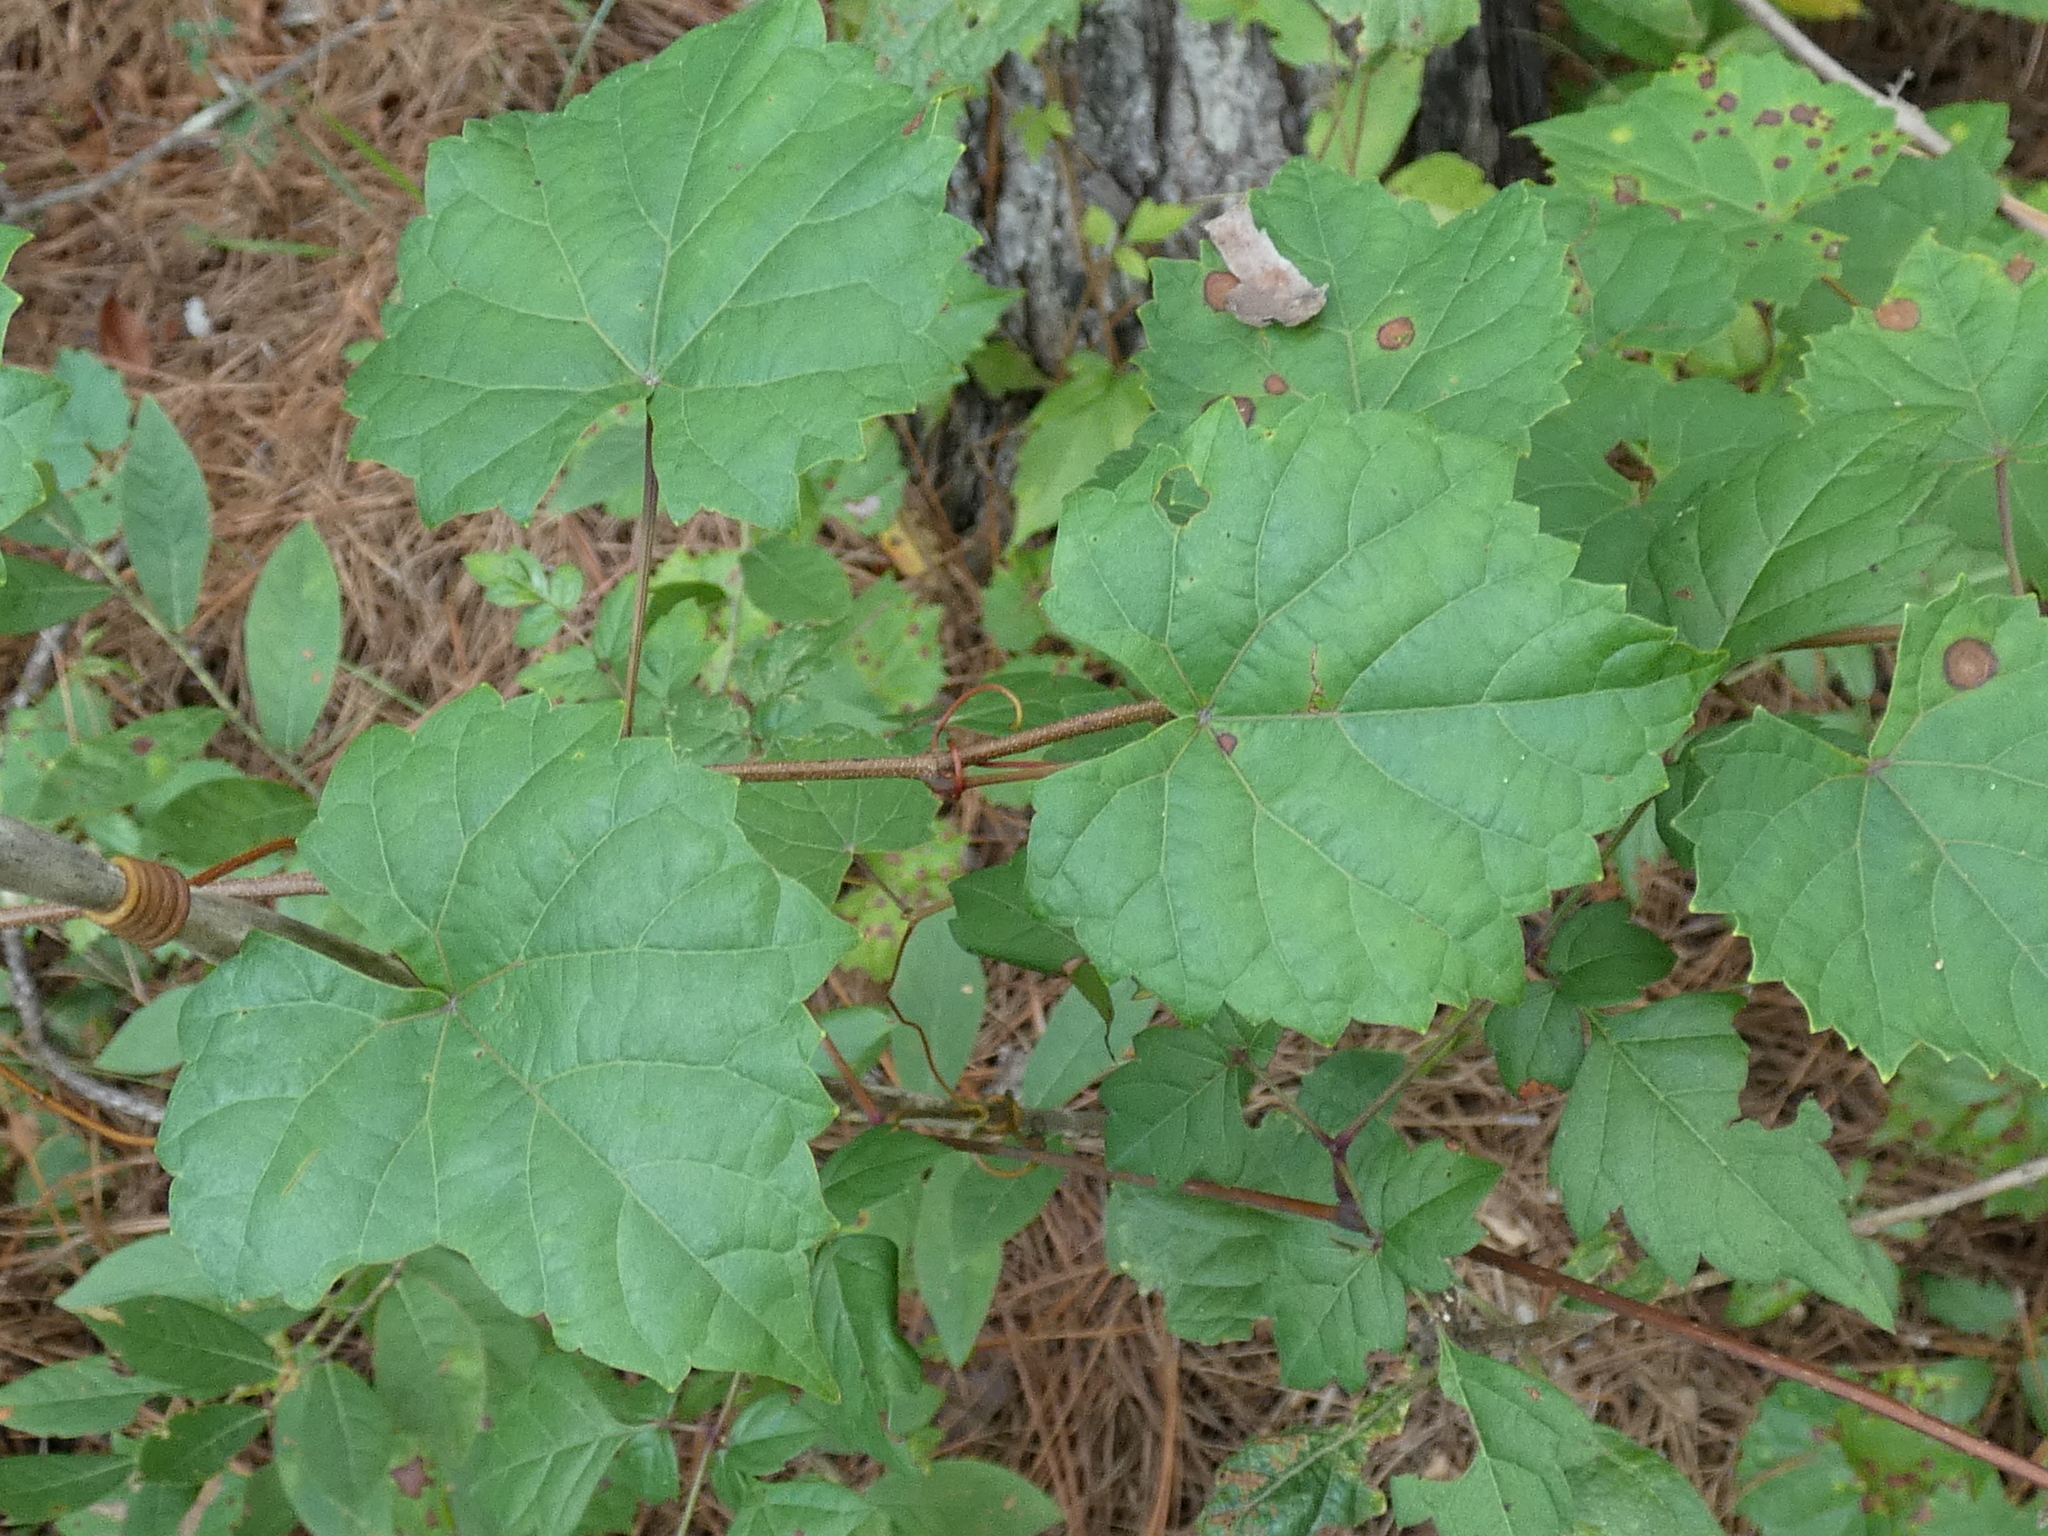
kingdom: Plantae
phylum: Tracheophyta
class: Magnoliopsida
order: Vitales
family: Vitaceae
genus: Vitis
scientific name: Vitis rotundifolia
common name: Muscadine grape
